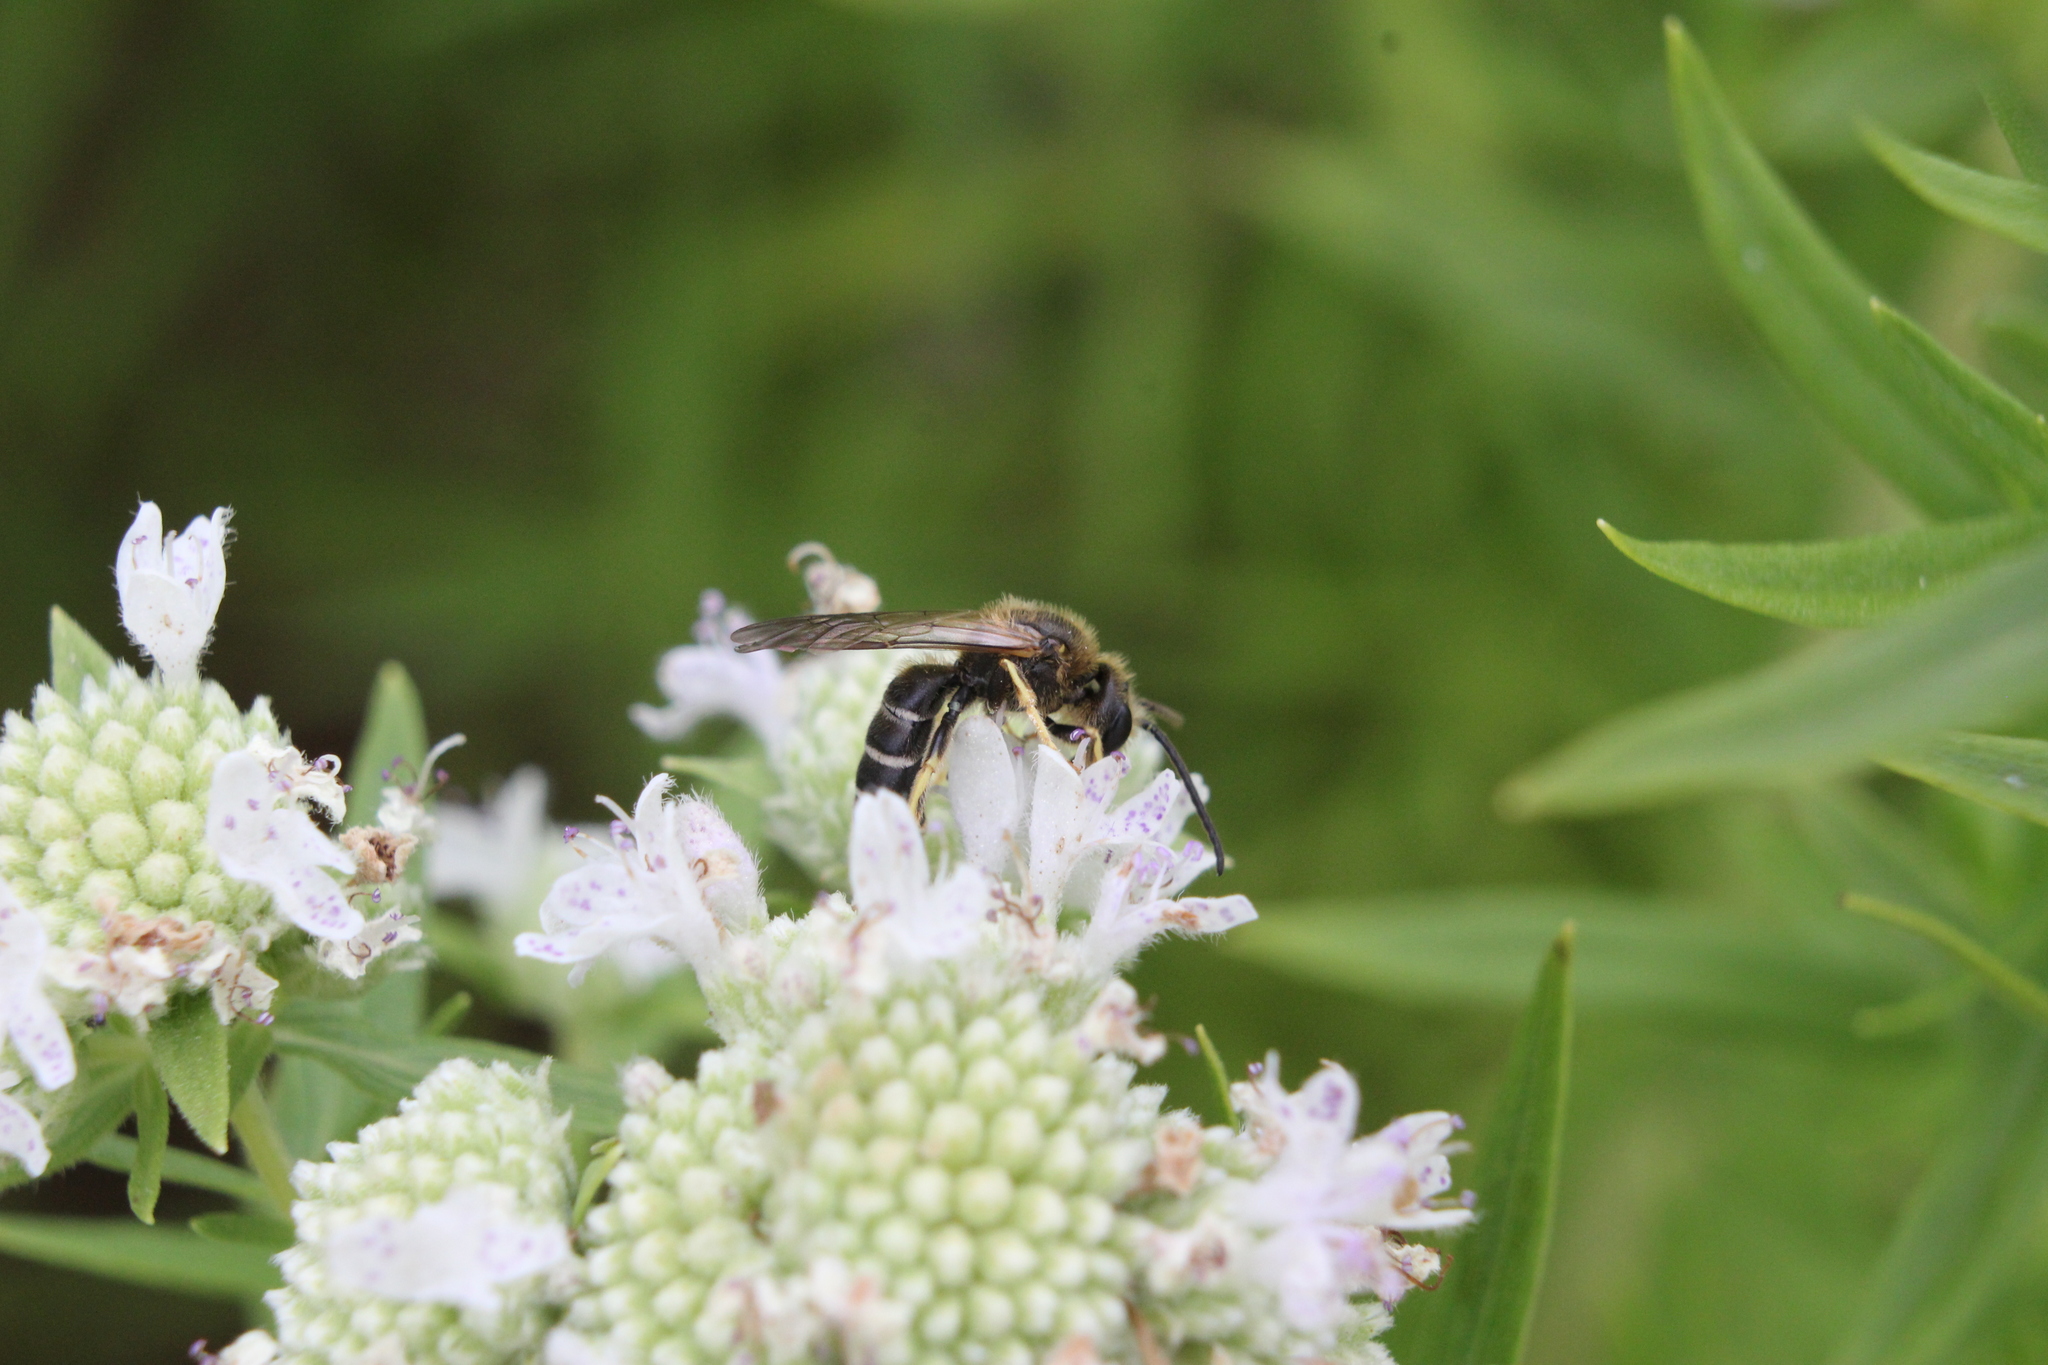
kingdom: Animalia
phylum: Arthropoda
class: Insecta
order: Hymenoptera
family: Halictidae
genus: Halictus
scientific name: Halictus rubicundus
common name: Orange-legged furrow bee
